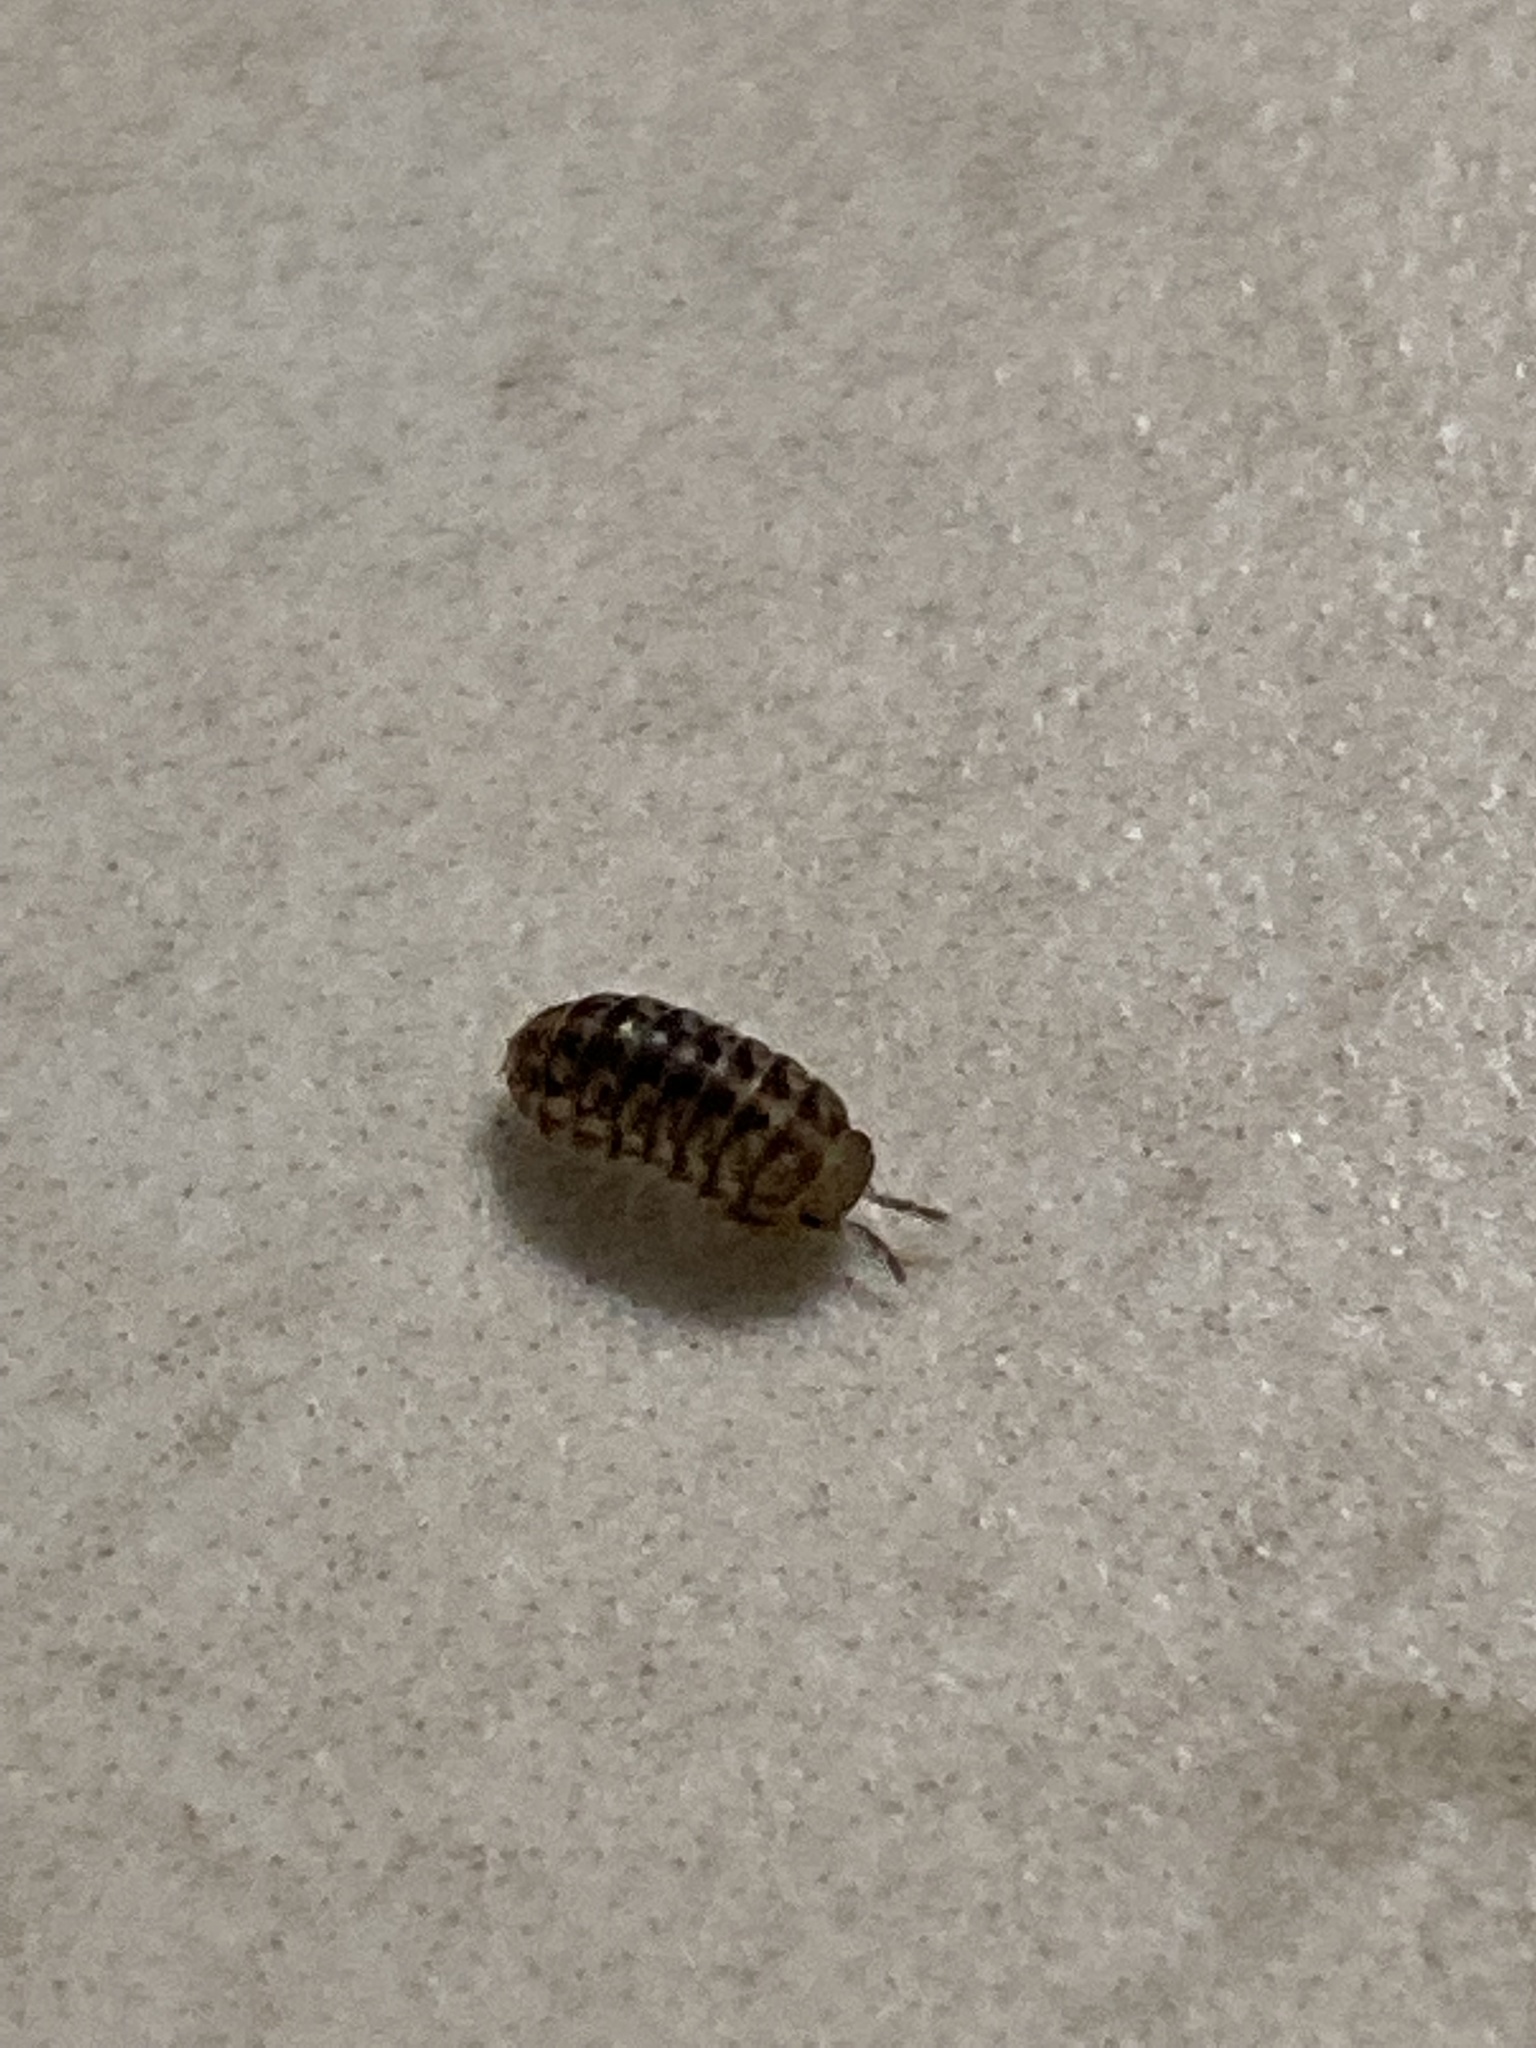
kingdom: Animalia
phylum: Arthropoda
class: Malacostraca
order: Isopoda
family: Armadillidae
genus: Venezillo
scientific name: Venezillo parvus
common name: Pillbug
